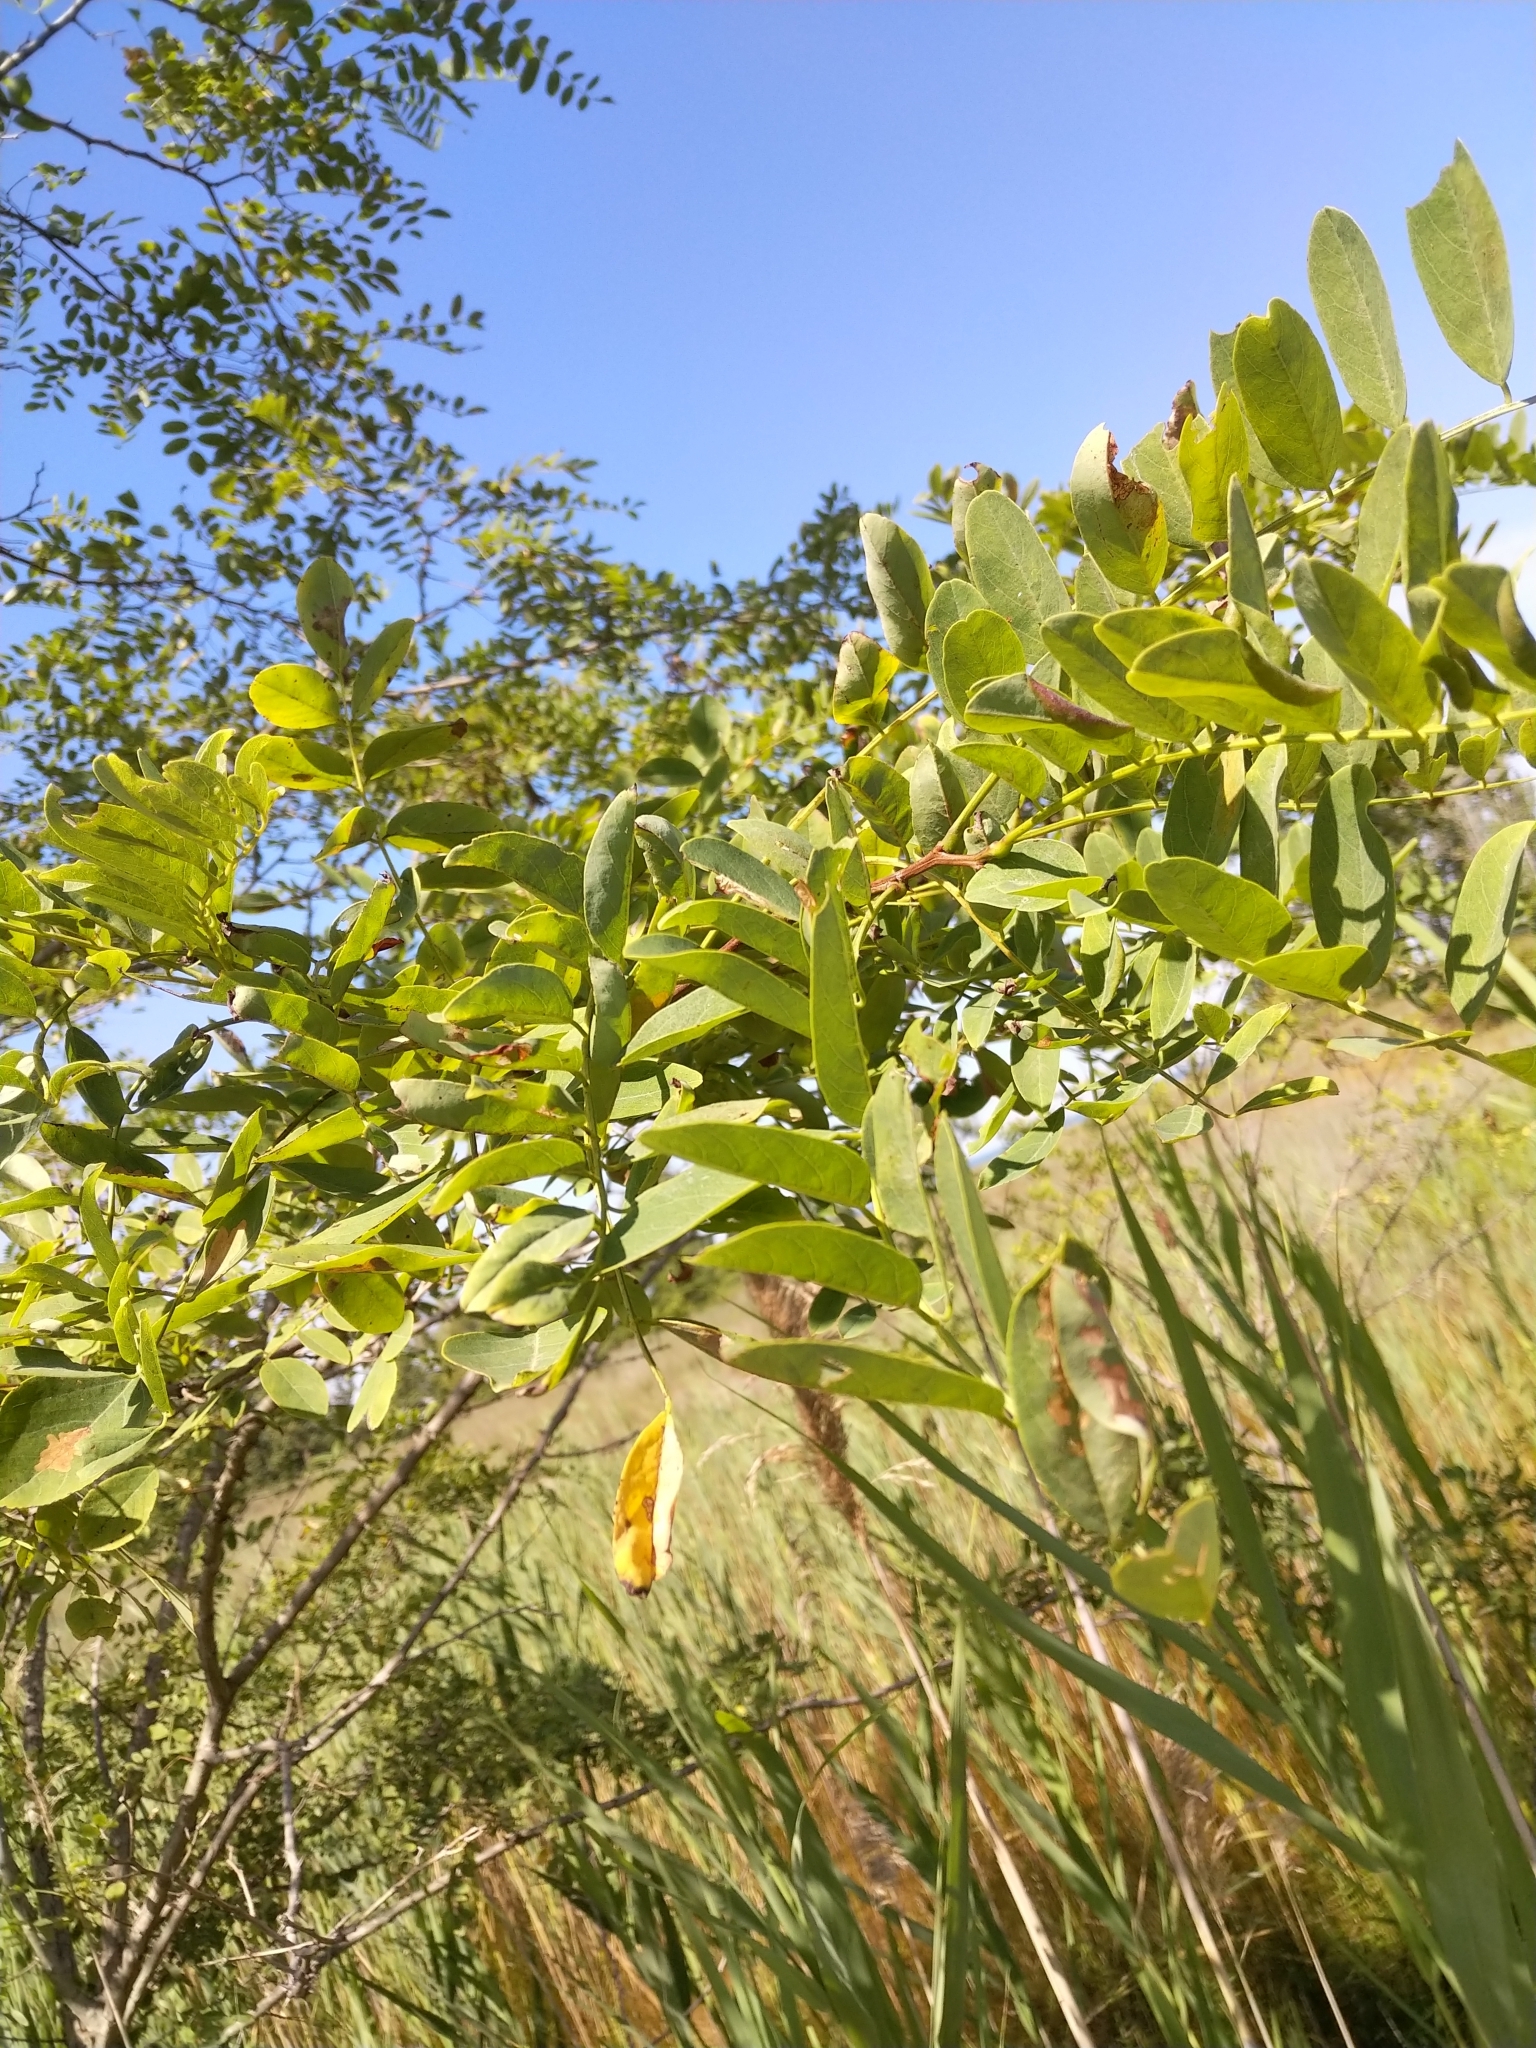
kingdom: Plantae
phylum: Tracheophyta
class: Magnoliopsida
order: Fabales
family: Fabaceae
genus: Robinia
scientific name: Robinia pseudoacacia
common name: Black locust
